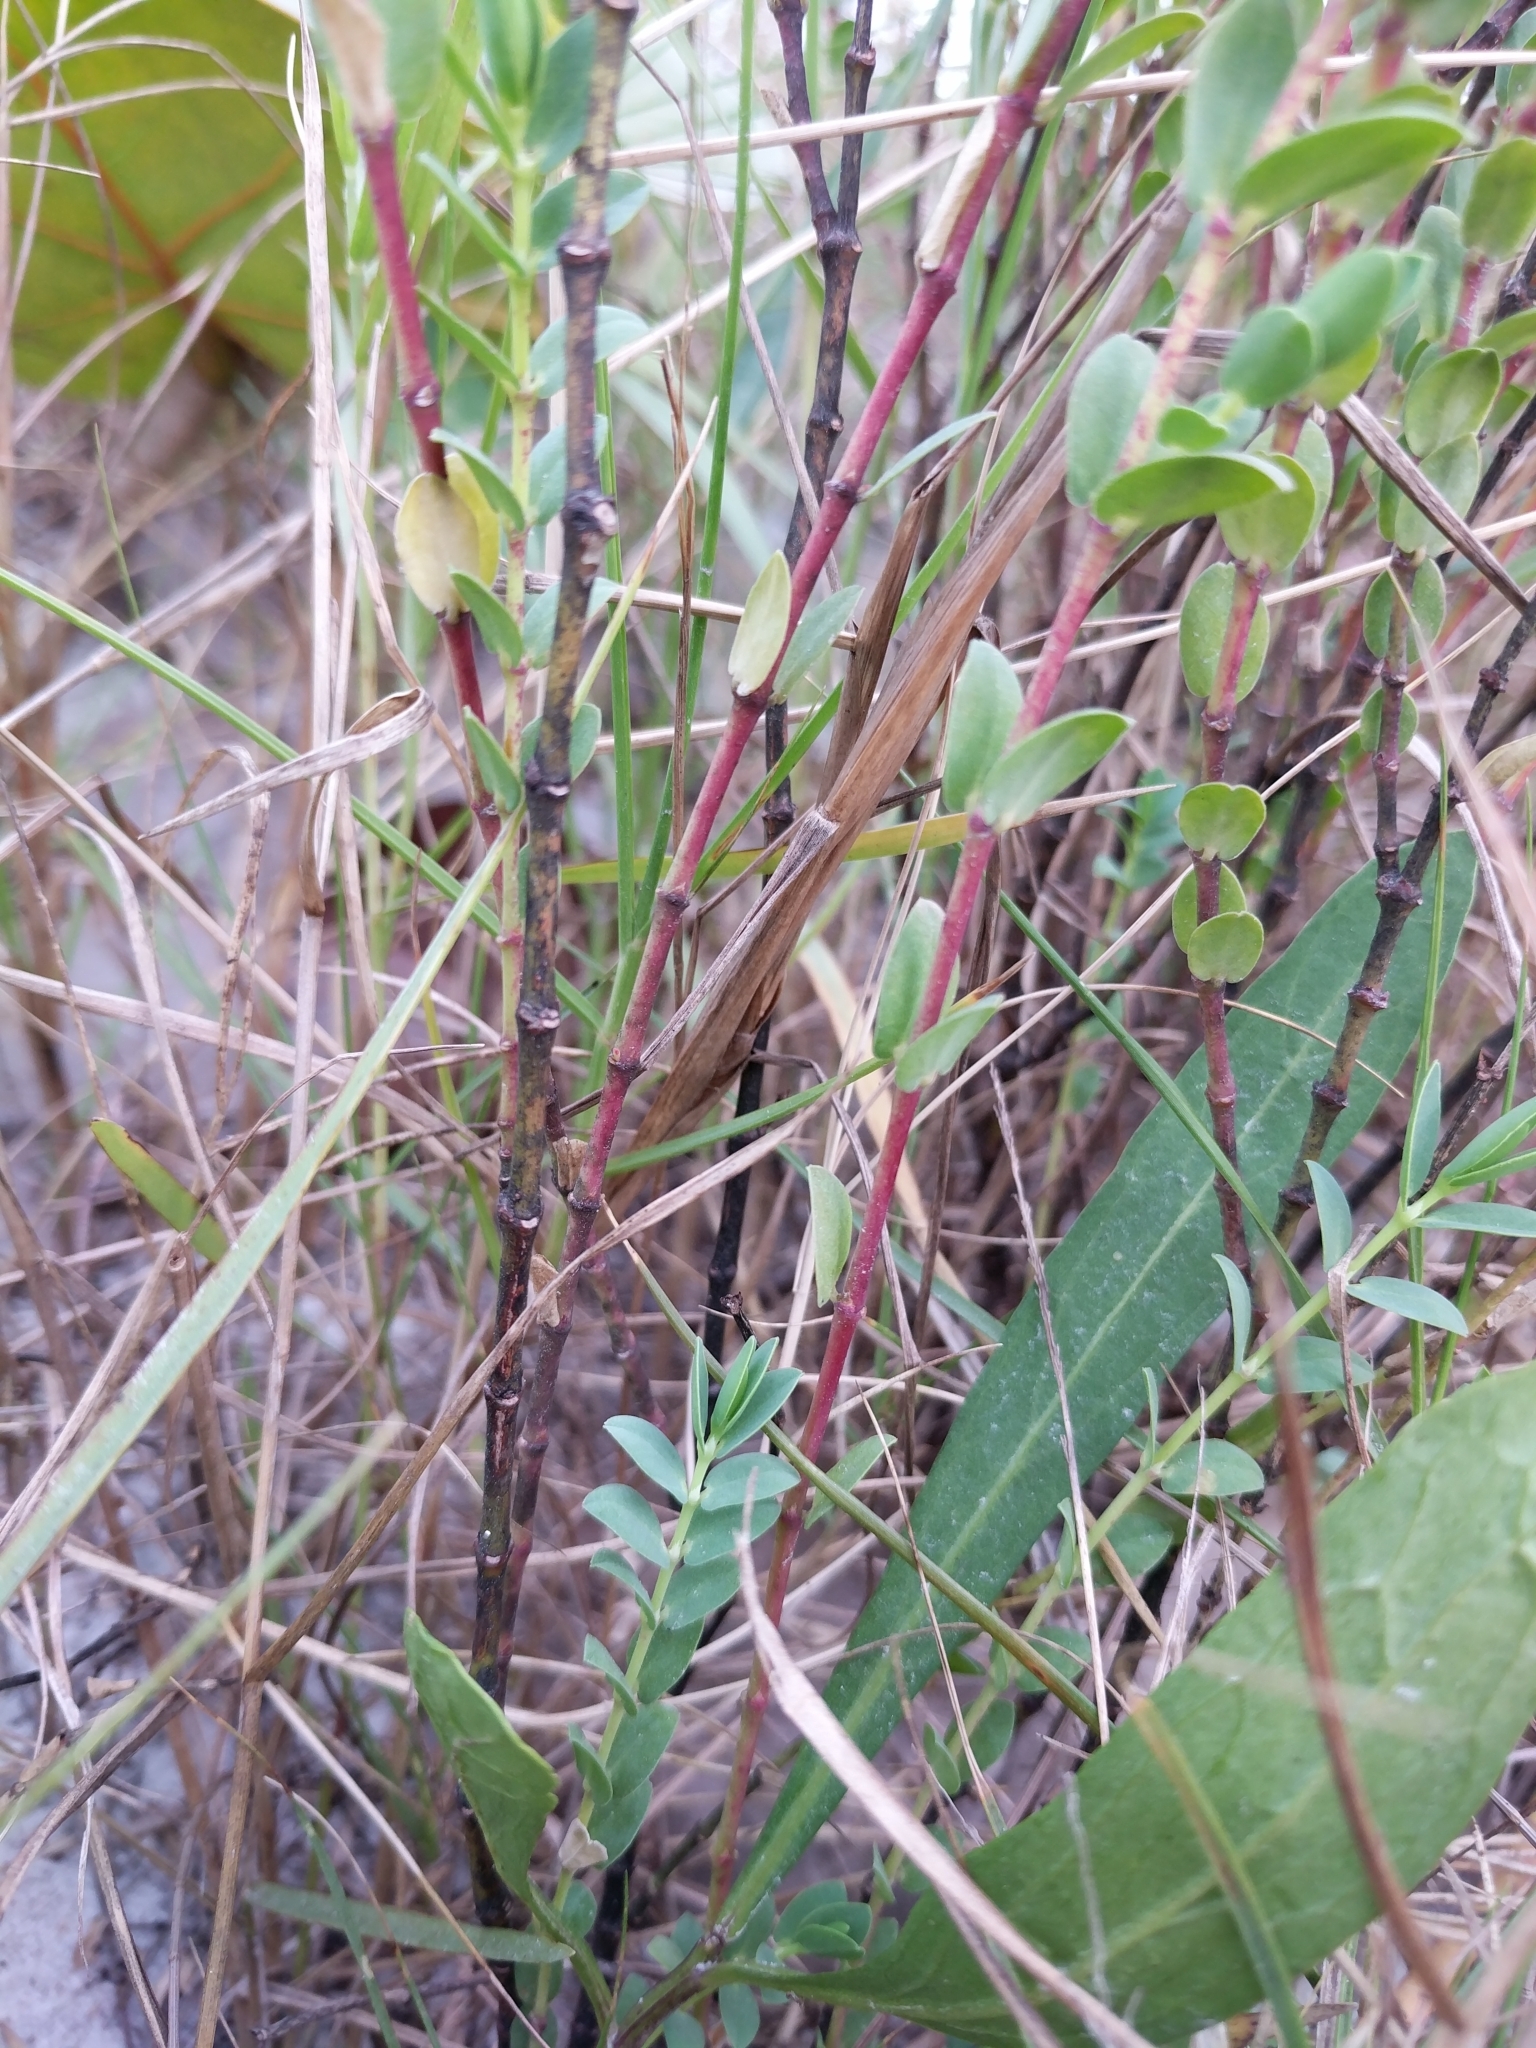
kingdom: Plantae
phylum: Tracheophyta
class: Magnoliopsida
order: Malpighiales
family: Euphorbiaceae
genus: Euphorbia
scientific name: Euphorbia mesembryanthemifolia
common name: Coastal beach sandmat
